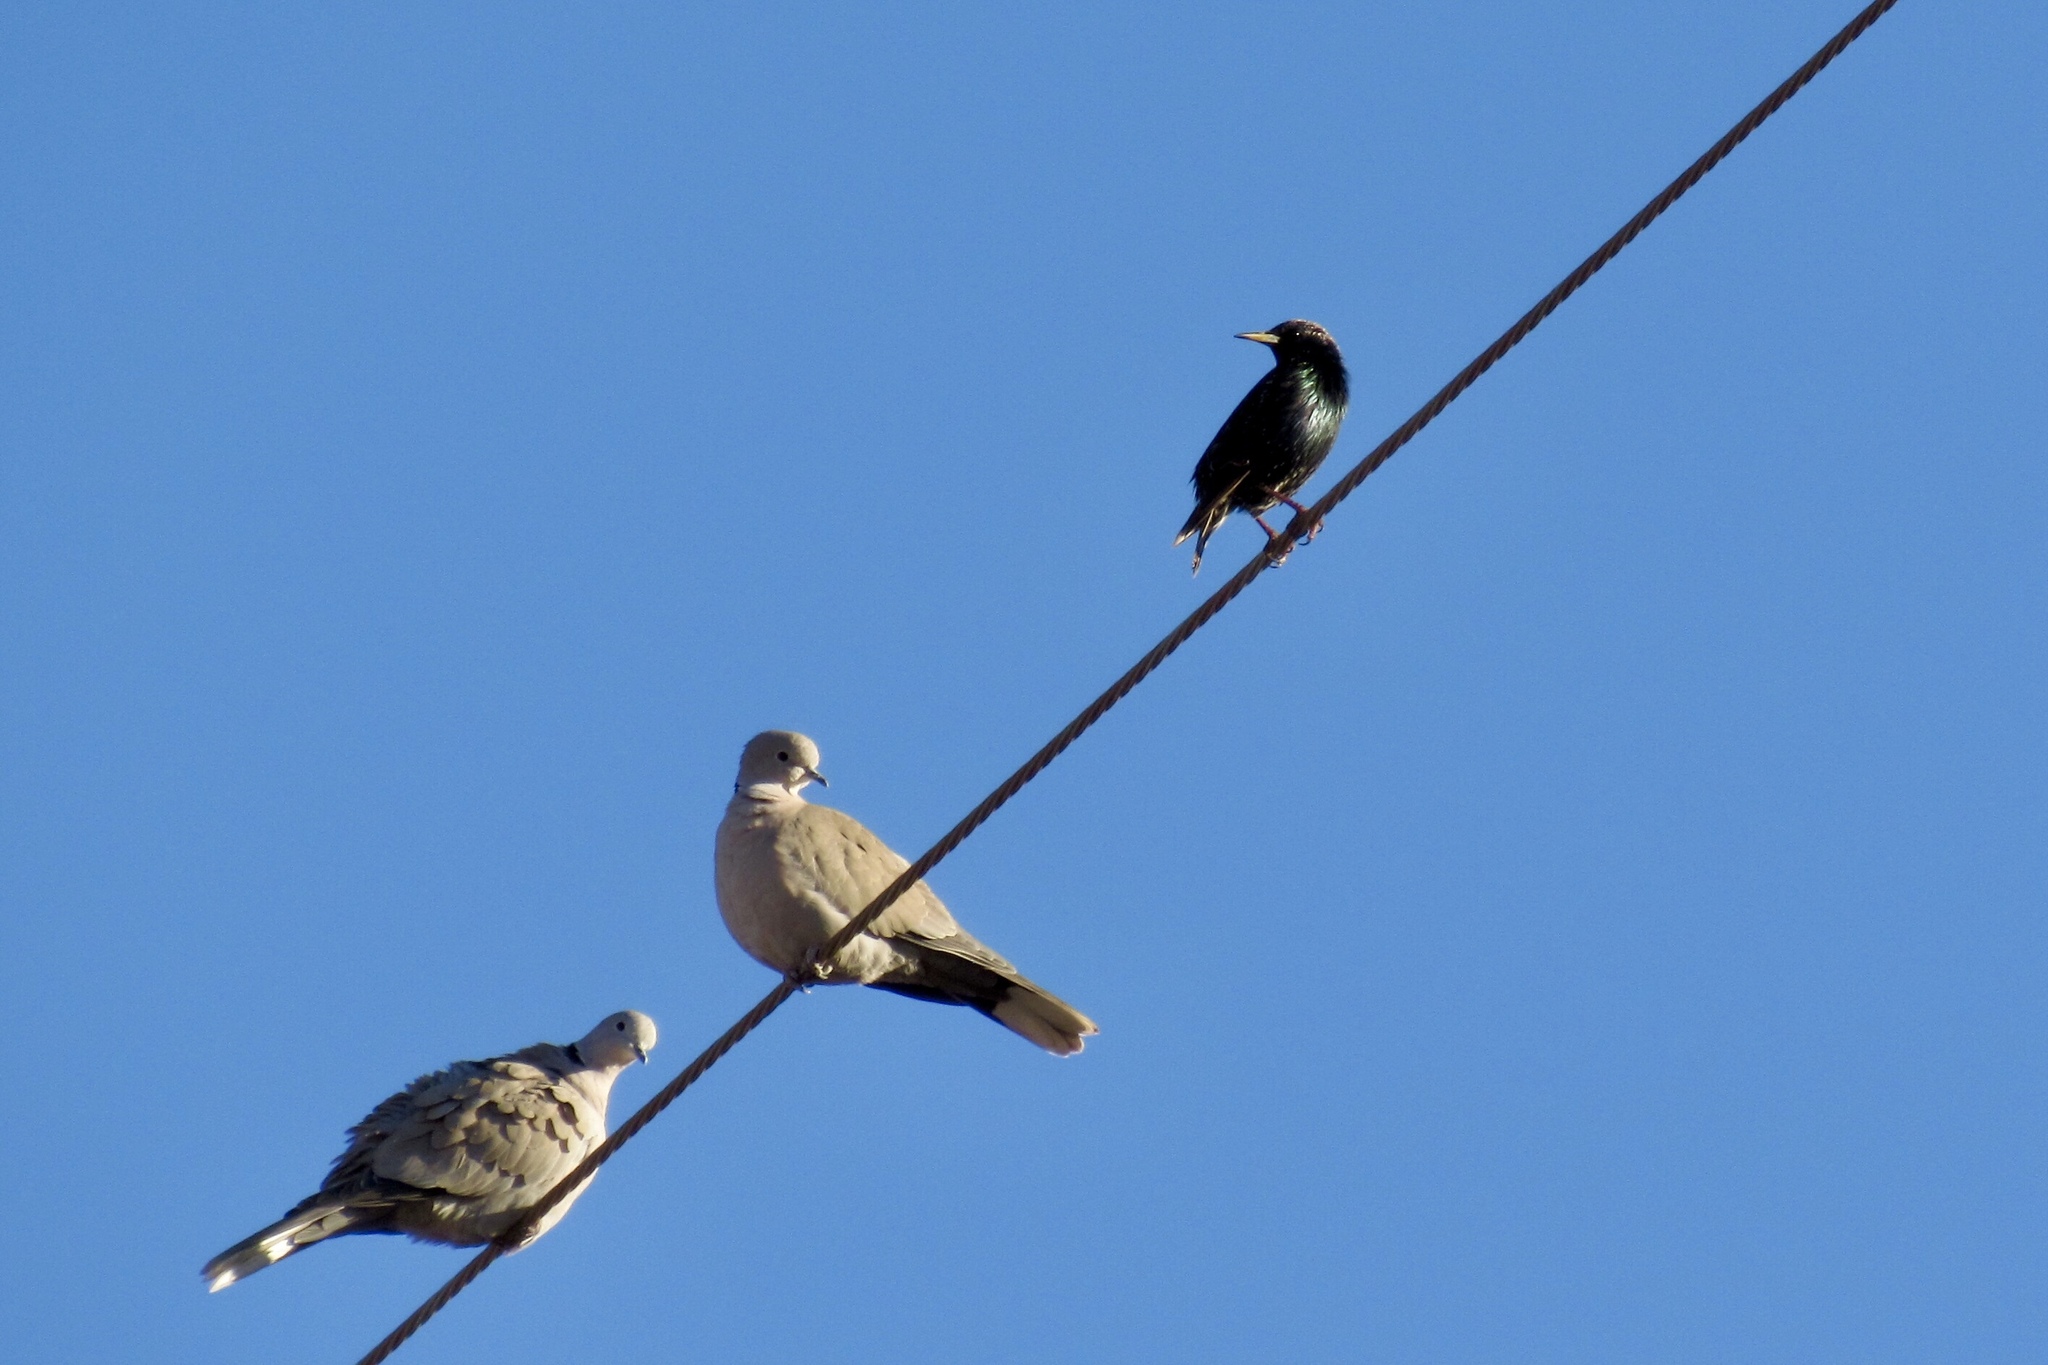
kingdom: Animalia
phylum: Chordata
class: Aves
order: Passeriformes
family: Sturnidae
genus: Sturnus
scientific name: Sturnus vulgaris
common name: Common starling
